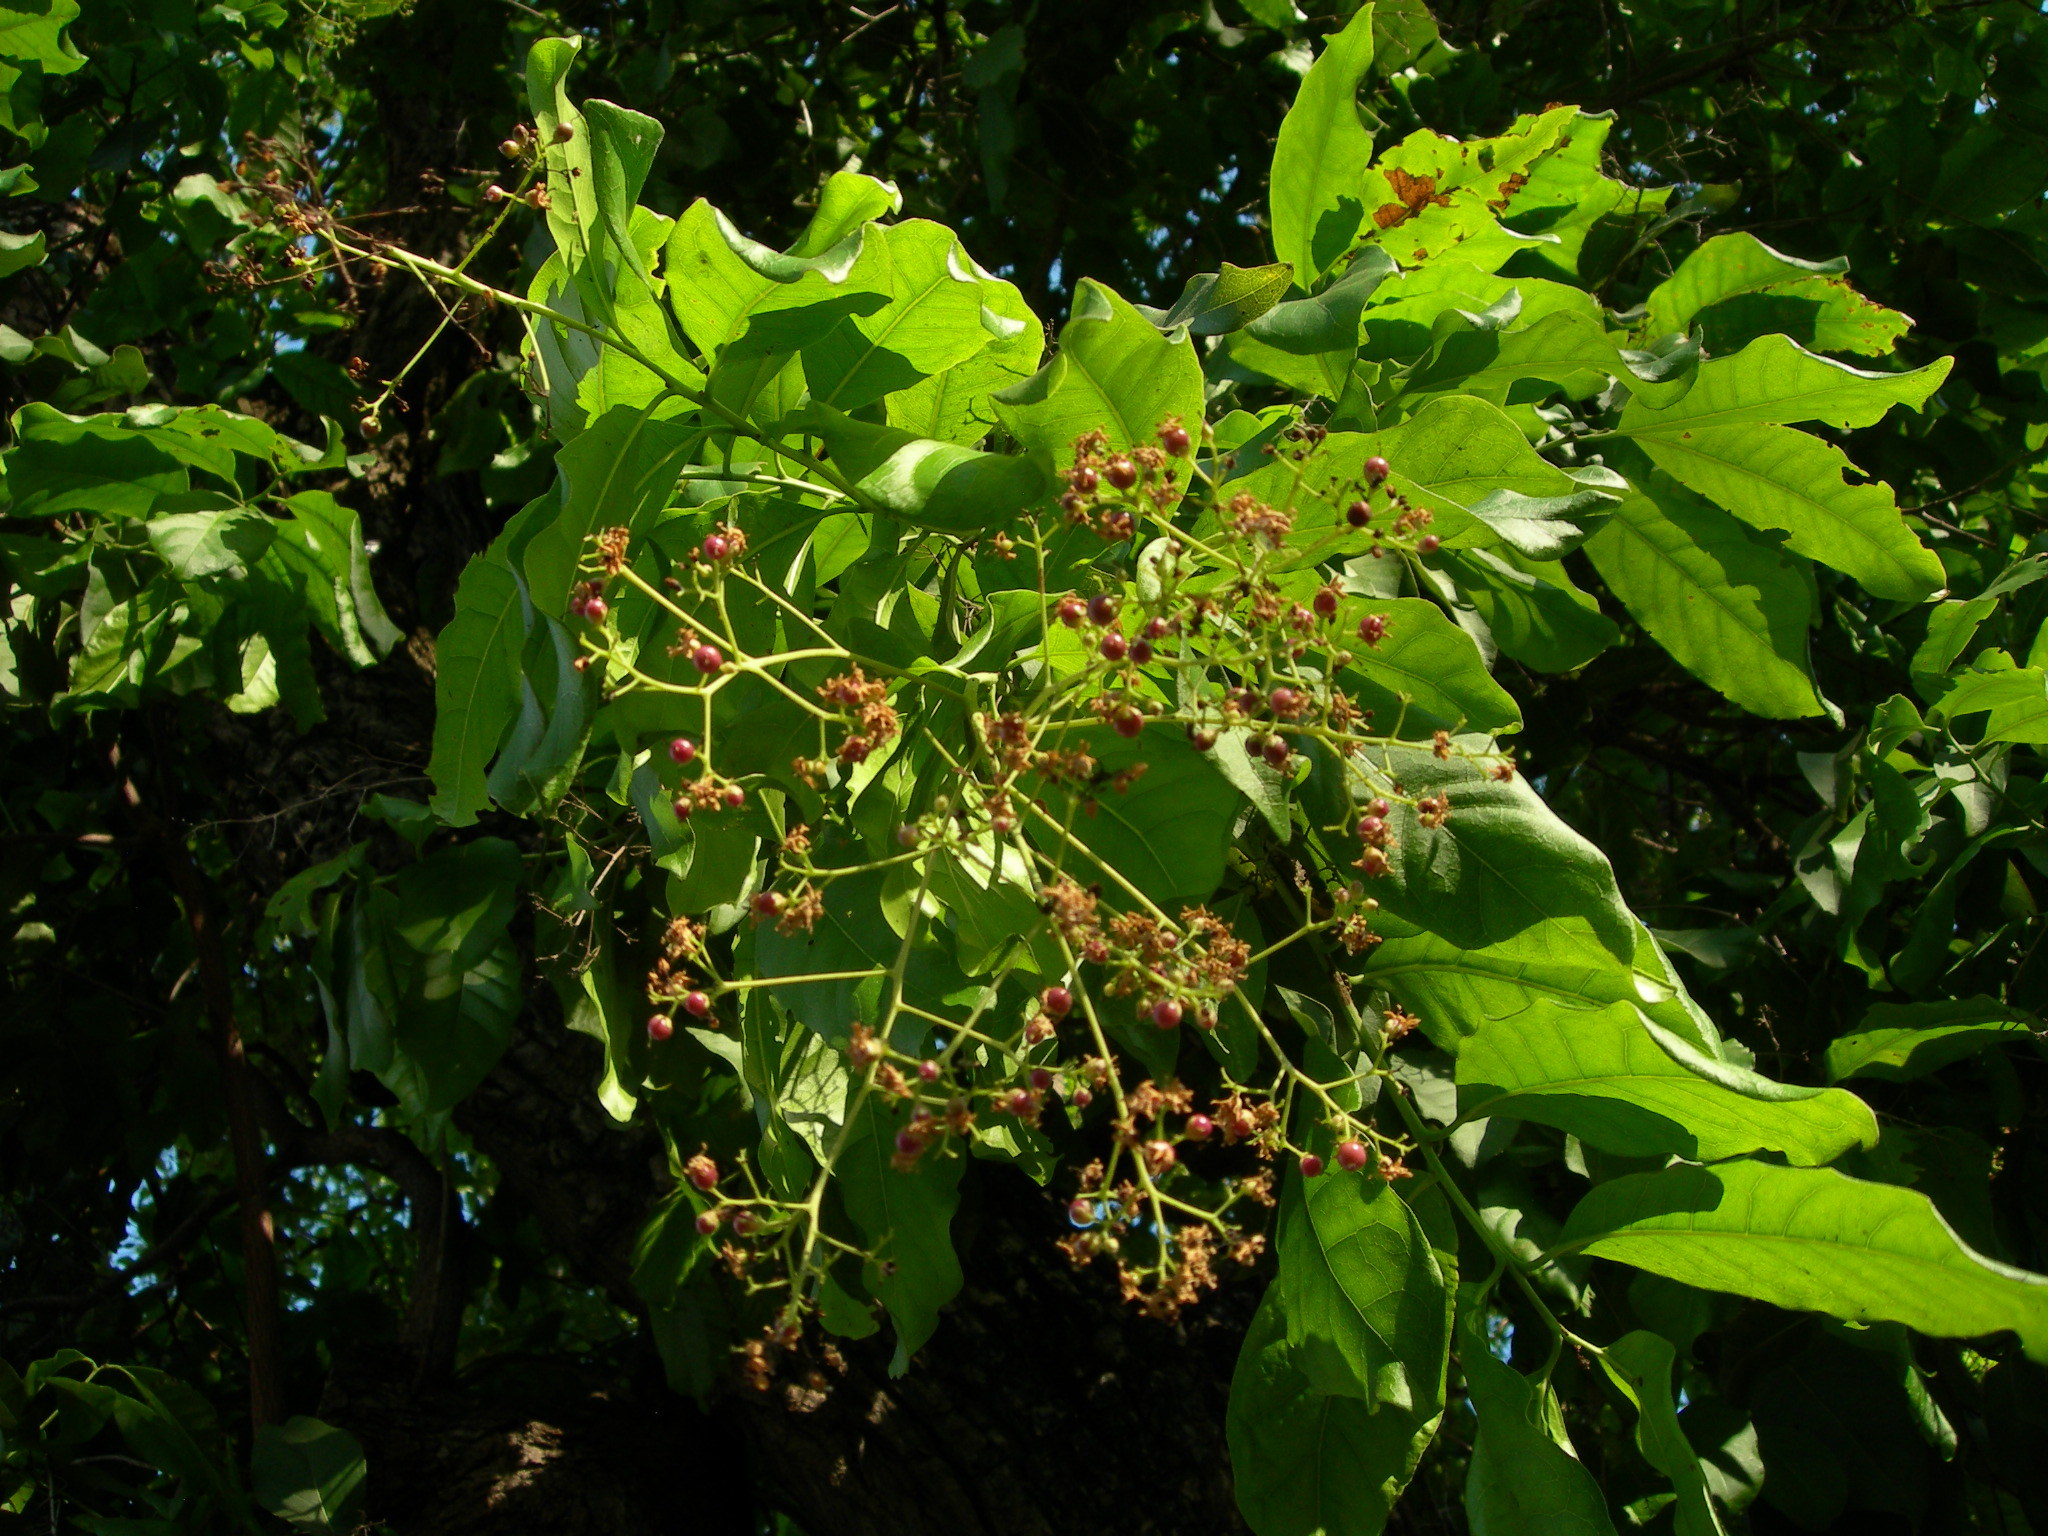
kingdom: Plantae
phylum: Tracheophyta
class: Magnoliopsida
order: Boraginales
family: Cordiaceae
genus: Cordia
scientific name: Cordia elaeagnoides
